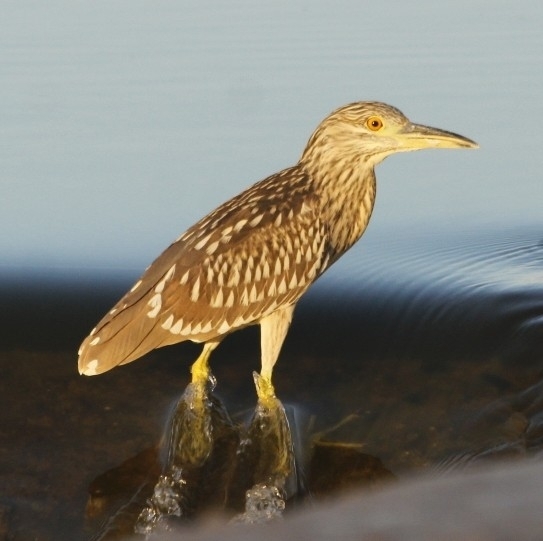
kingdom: Animalia
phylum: Chordata
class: Aves
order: Pelecaniformes
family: Ardeidae
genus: Nycticorax
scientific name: Nycticorax nycticorax
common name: Black-crowned night heron
